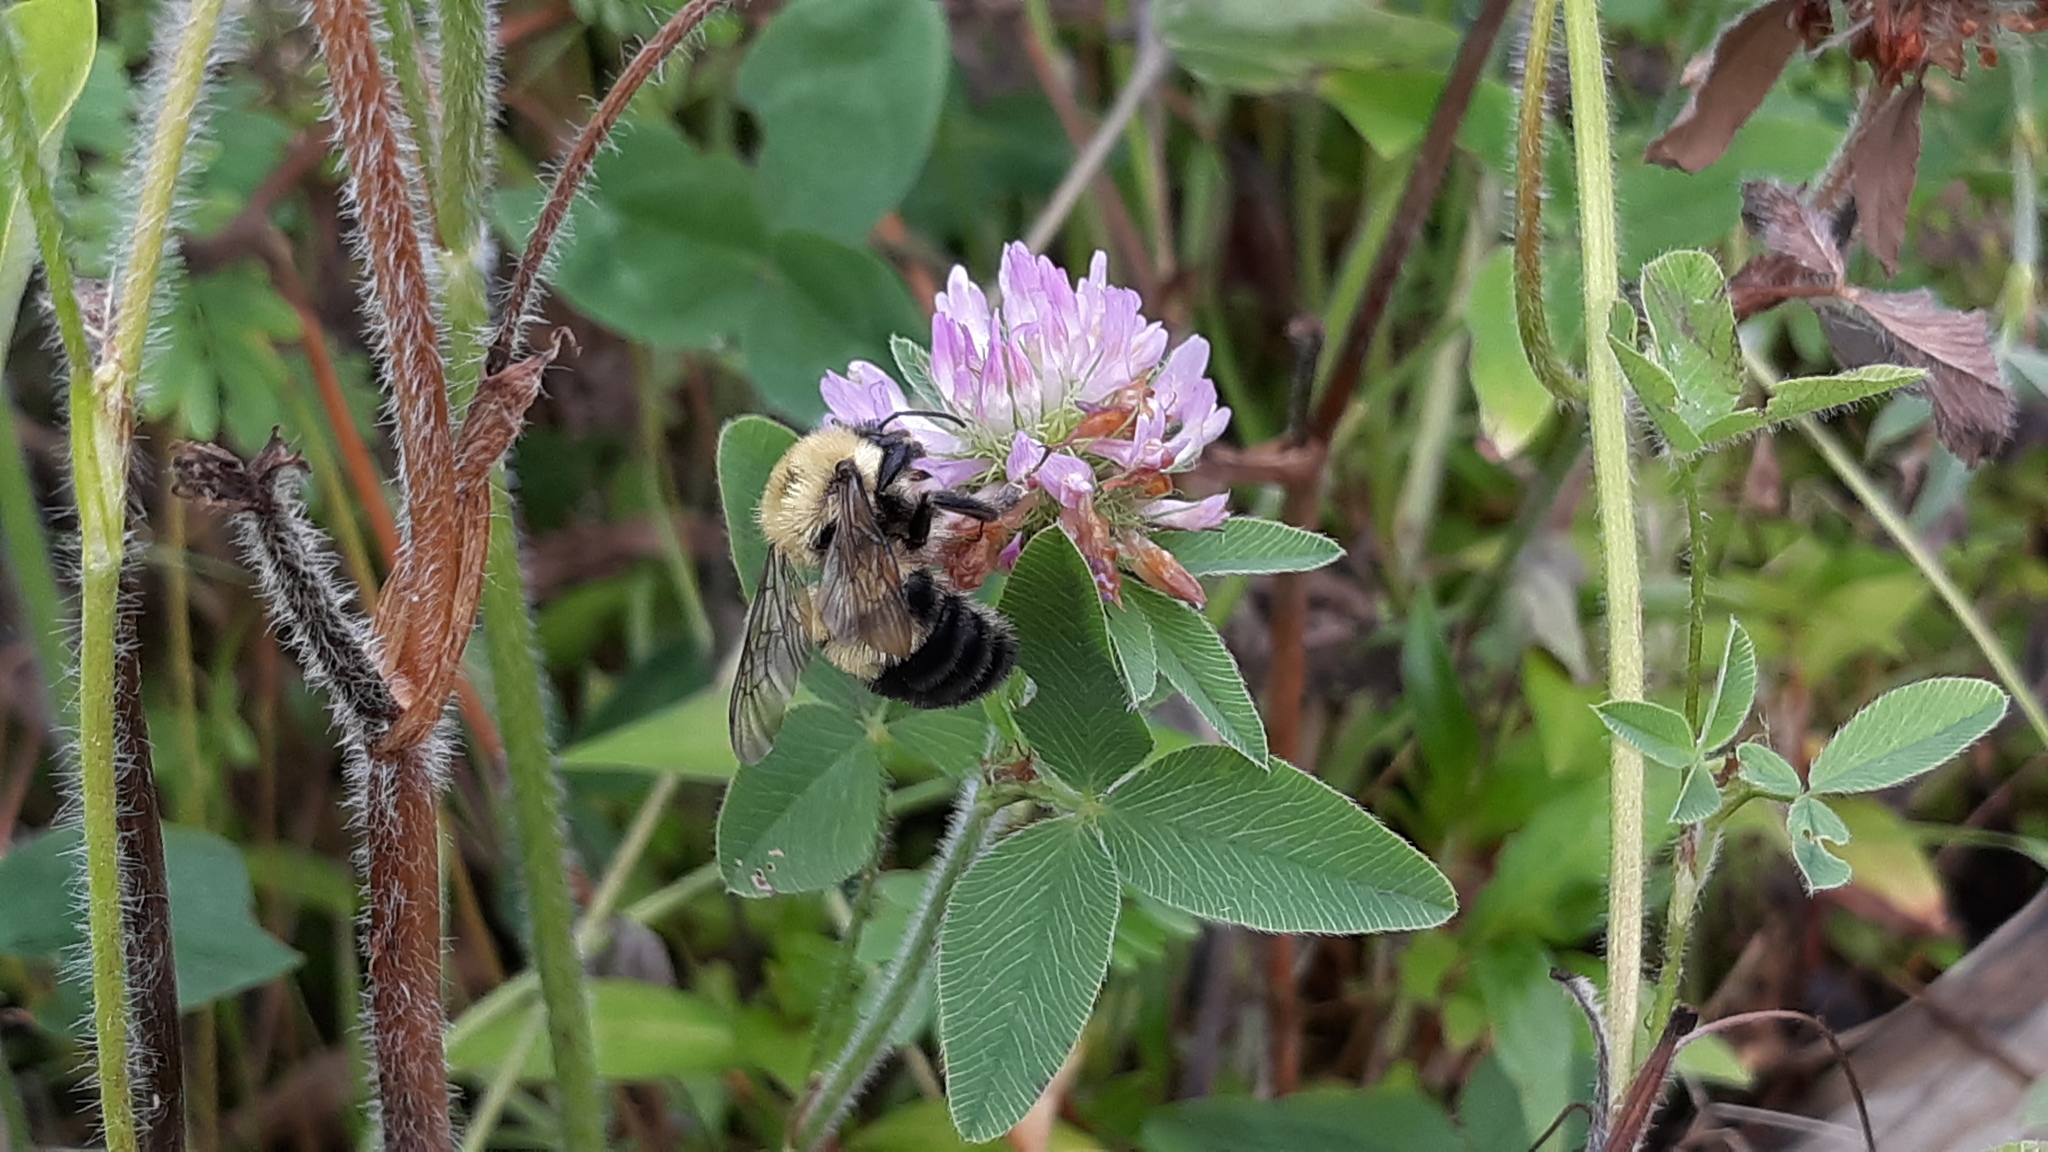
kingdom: Animalia
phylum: Arthropoda
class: Insecta
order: Hymenoptera
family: Apidae
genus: Bombus
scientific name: Bombus bimaculatus
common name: Two-spotted bumble bee
